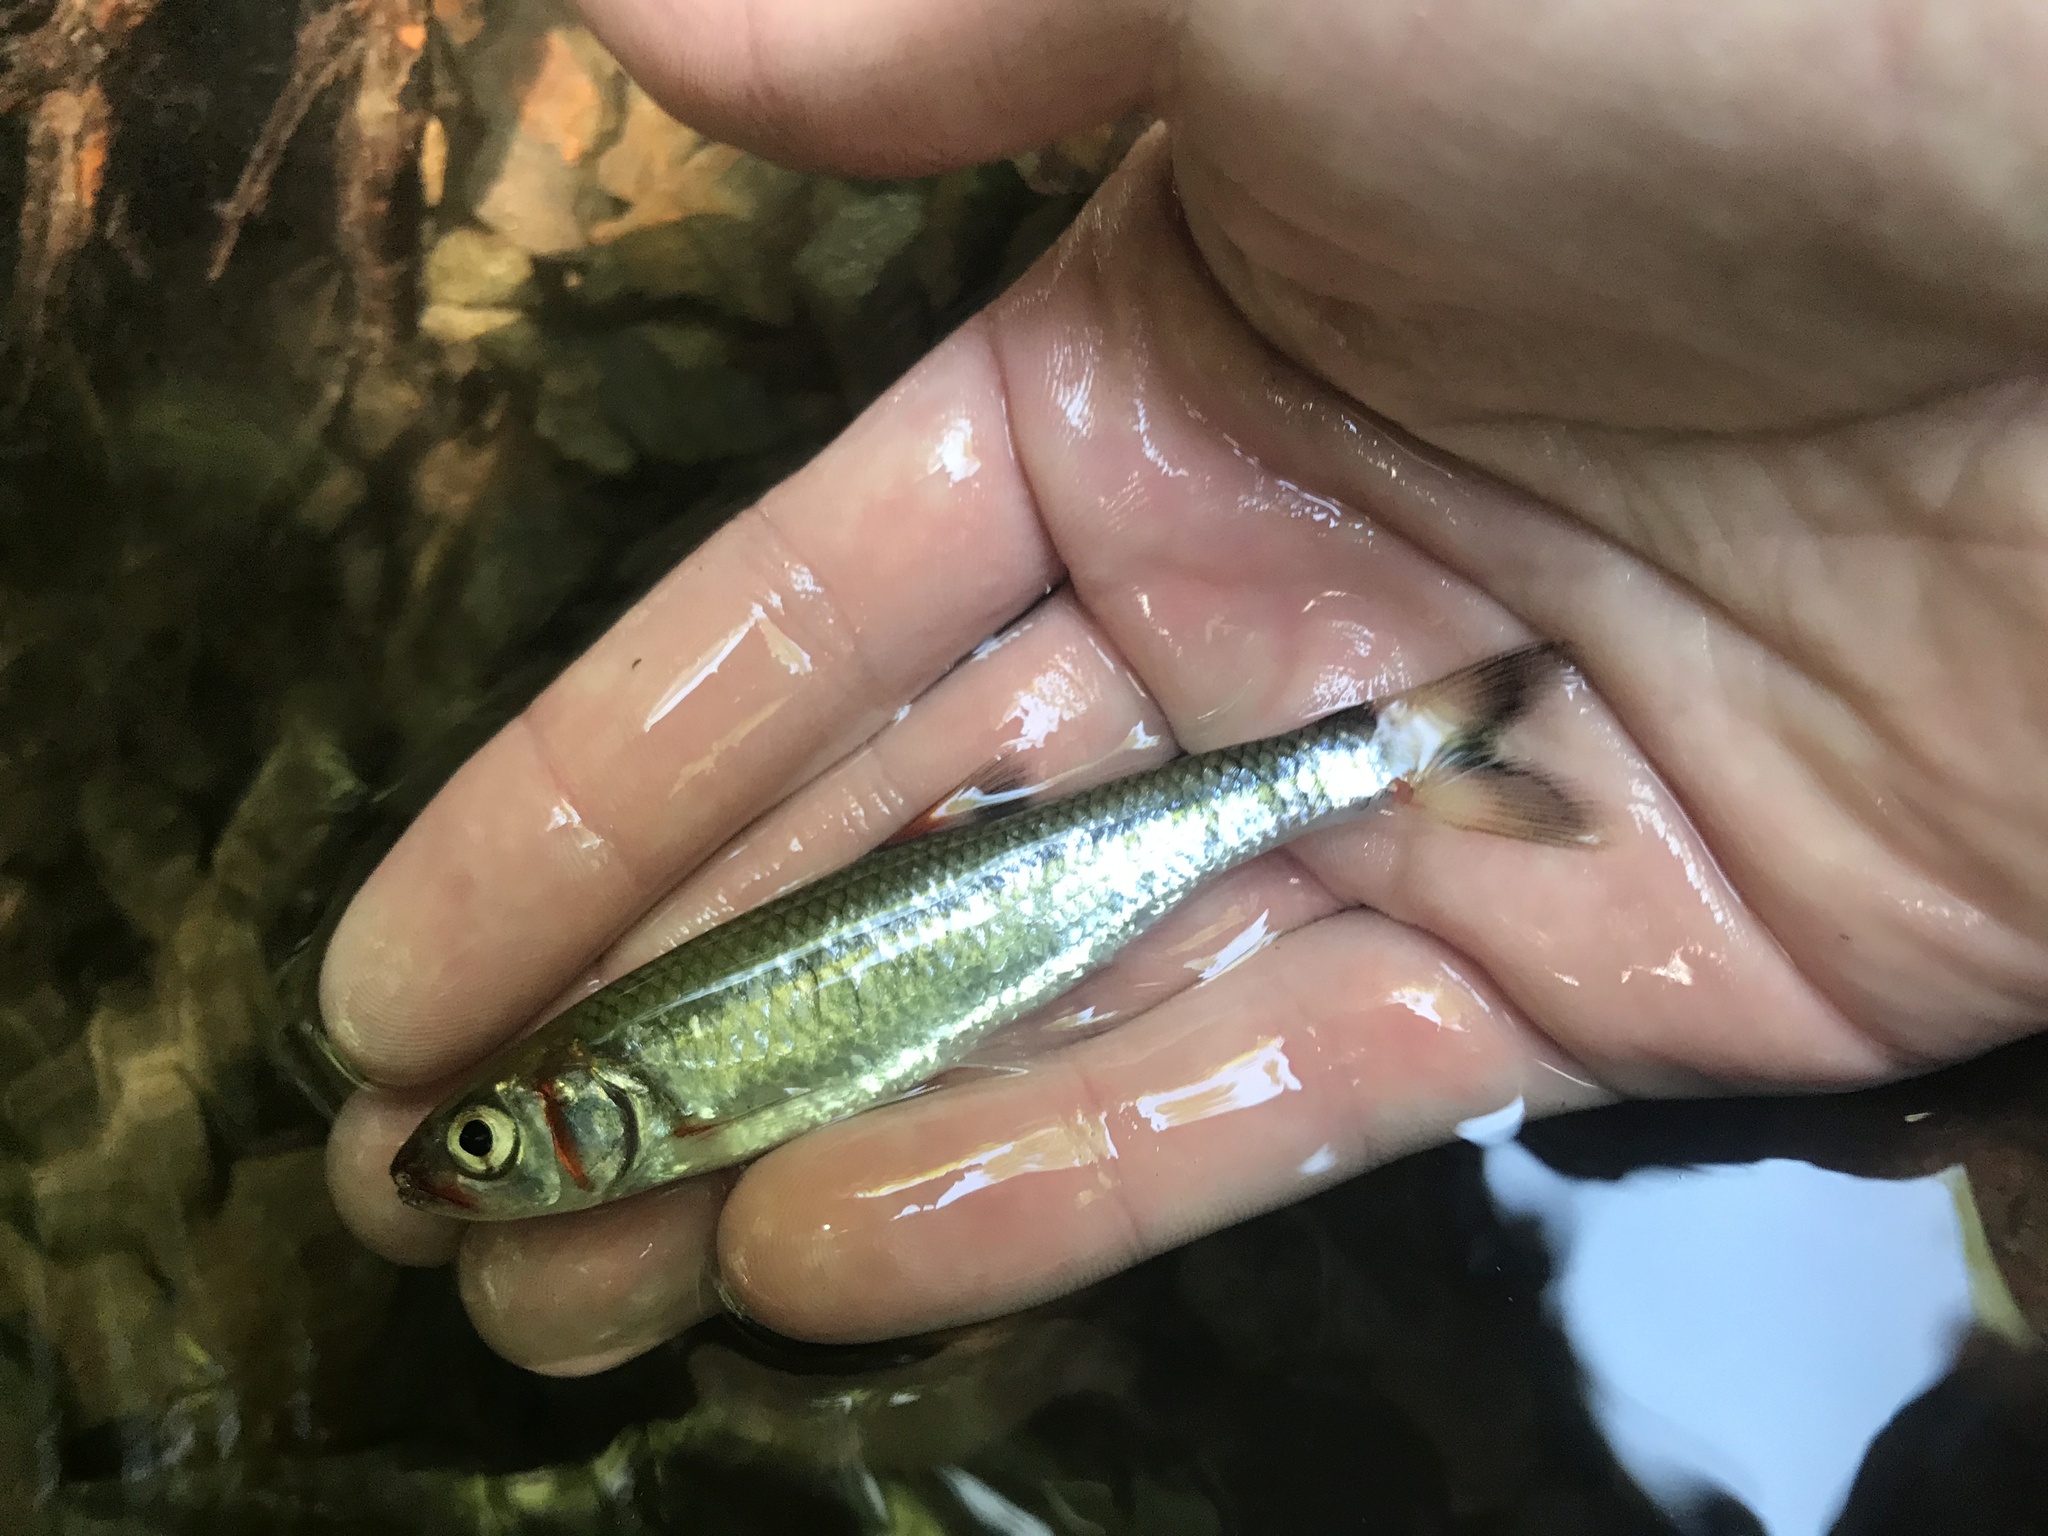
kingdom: Animalia
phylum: Chordata
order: Cypriniformes
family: Cyprinidae
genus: Luxilus
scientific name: Luxilus
